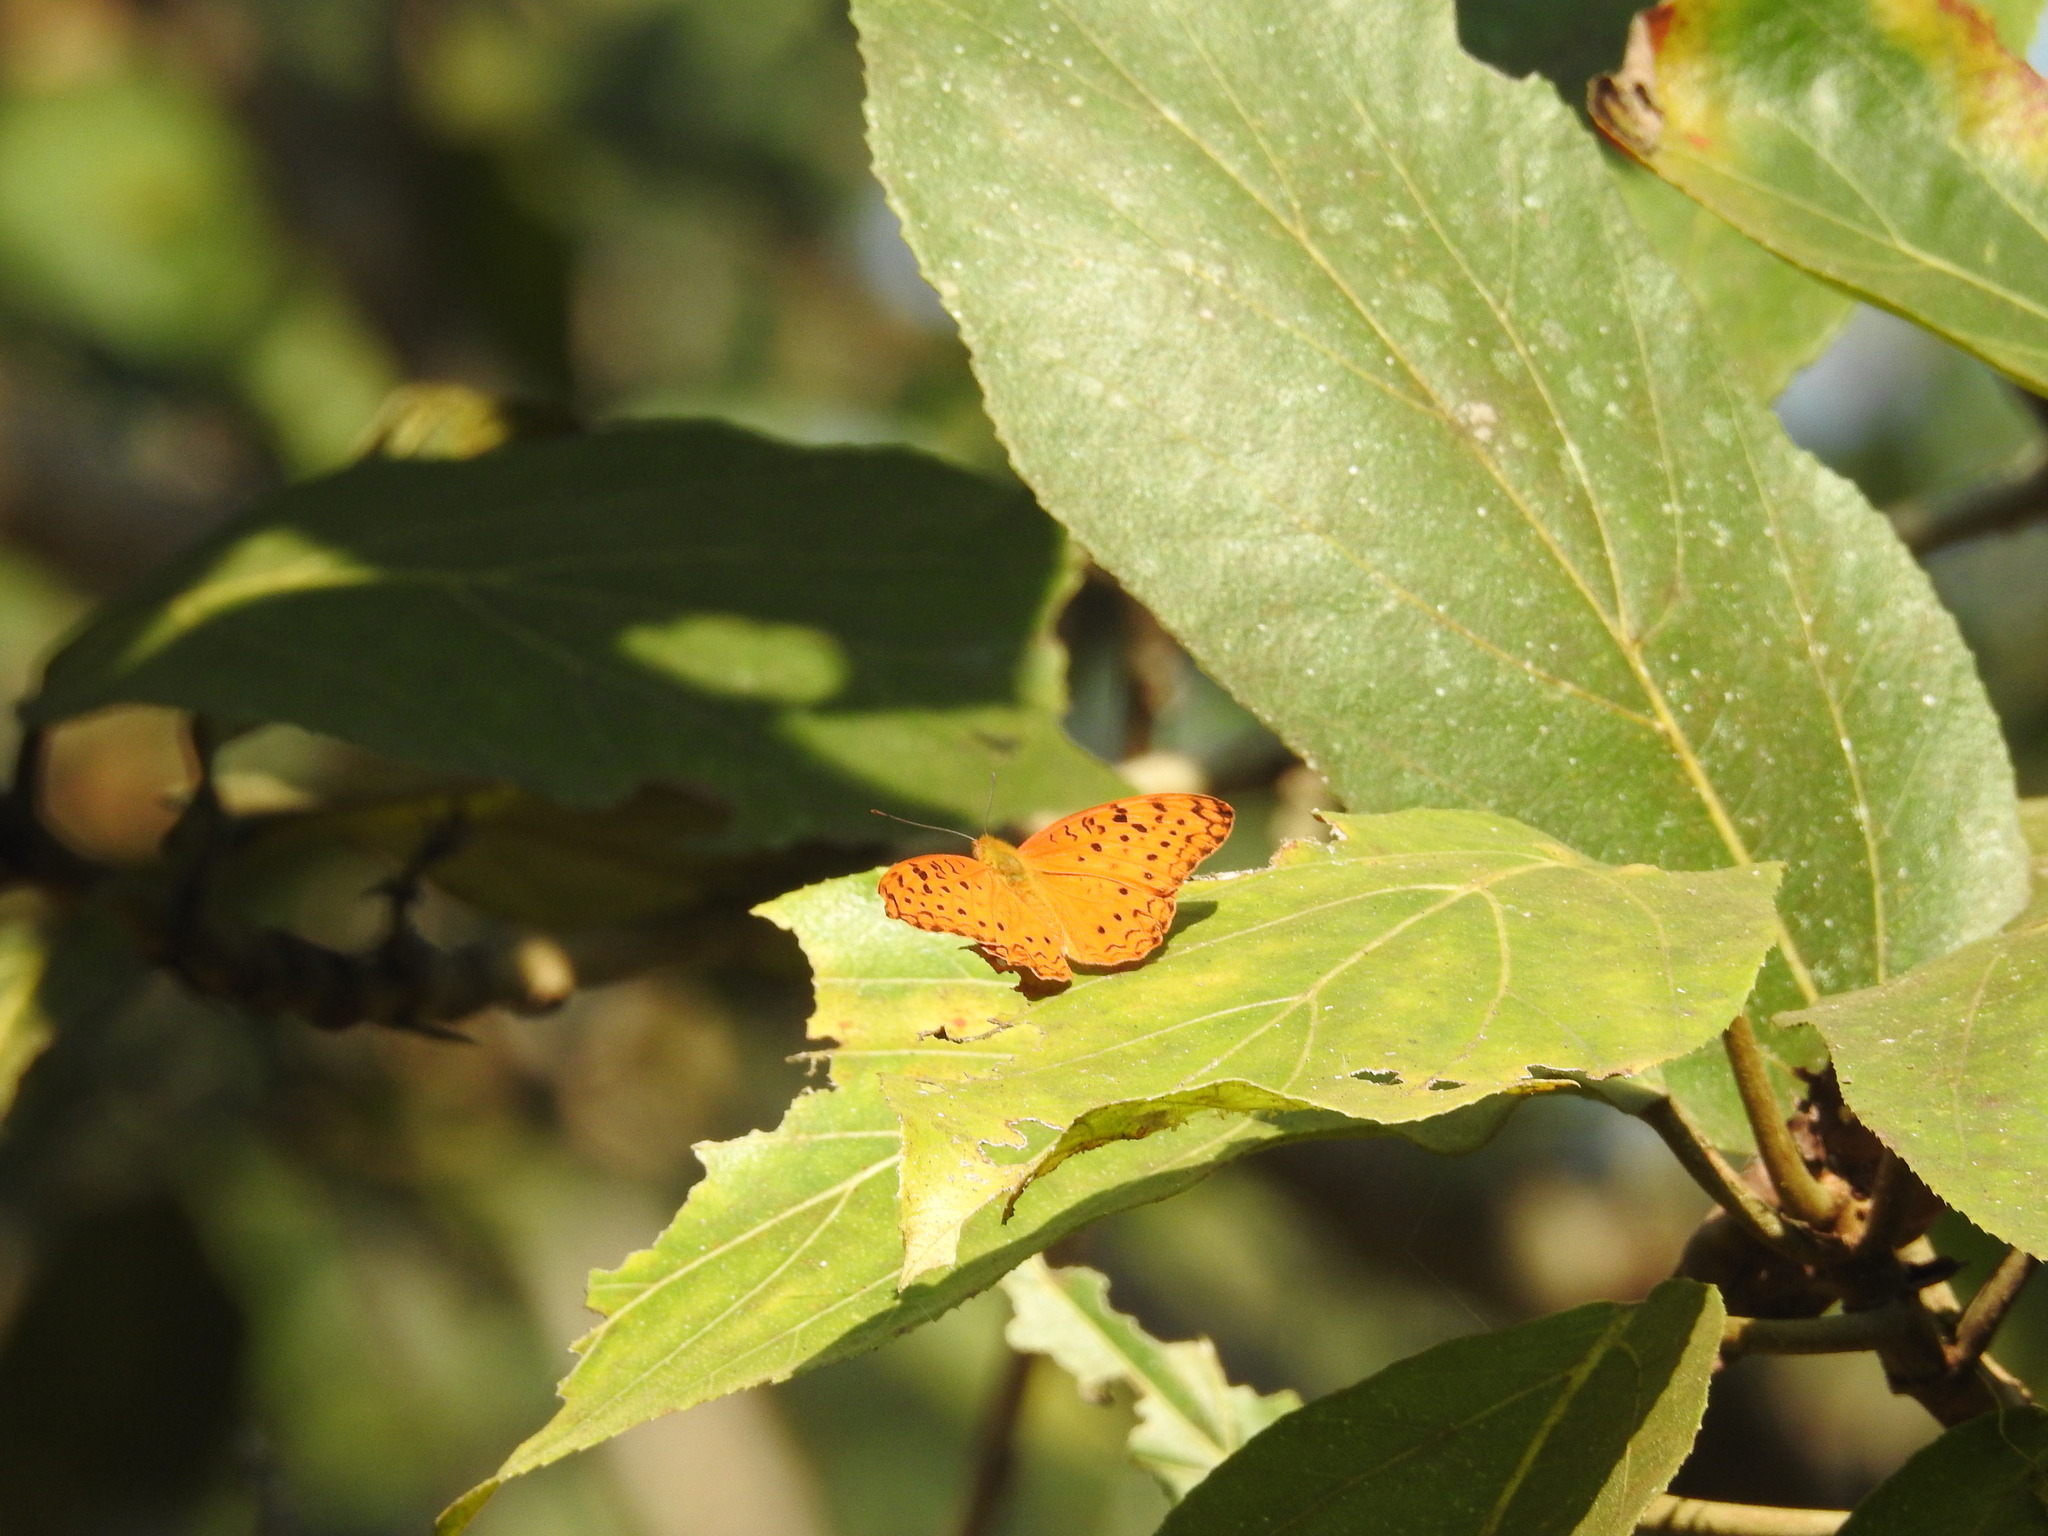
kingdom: Animalia
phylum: Arthropoda
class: Insecta
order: Lepidoptera
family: Nymphalidae
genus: Phalanta
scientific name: Phalanta phalantha
